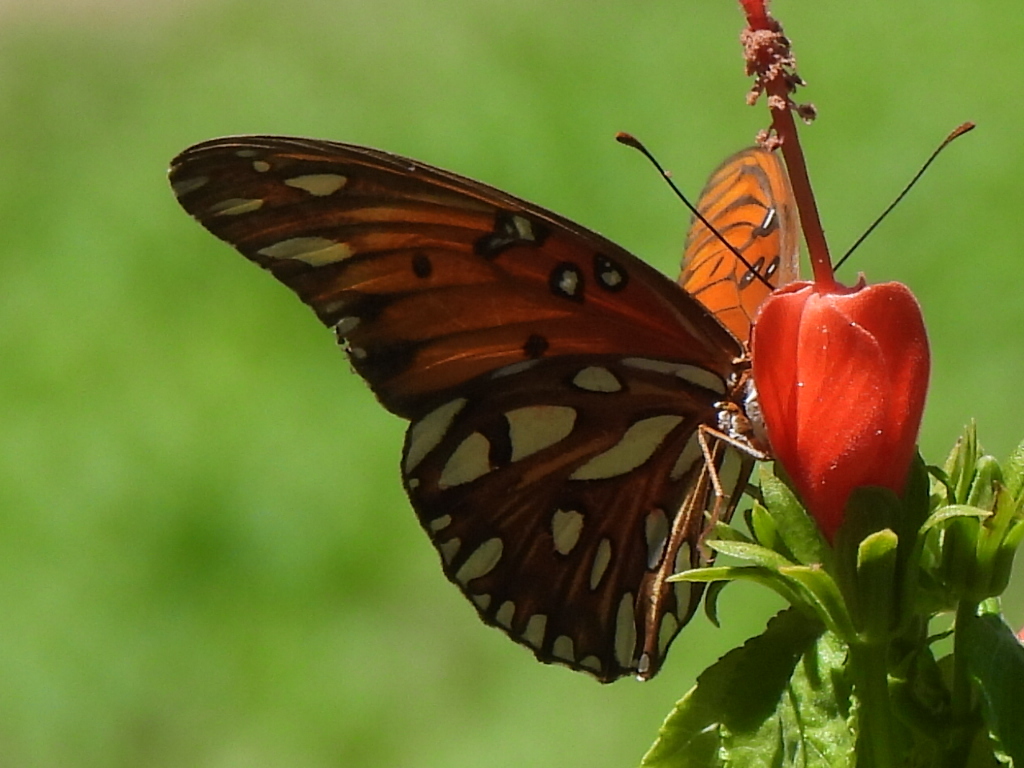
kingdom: Animalia
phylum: Arthropoda
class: Insecta
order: Lepidoptera
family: Nymphalidae
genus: Dione
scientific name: Dione vanillae
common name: Gulf fritillary
